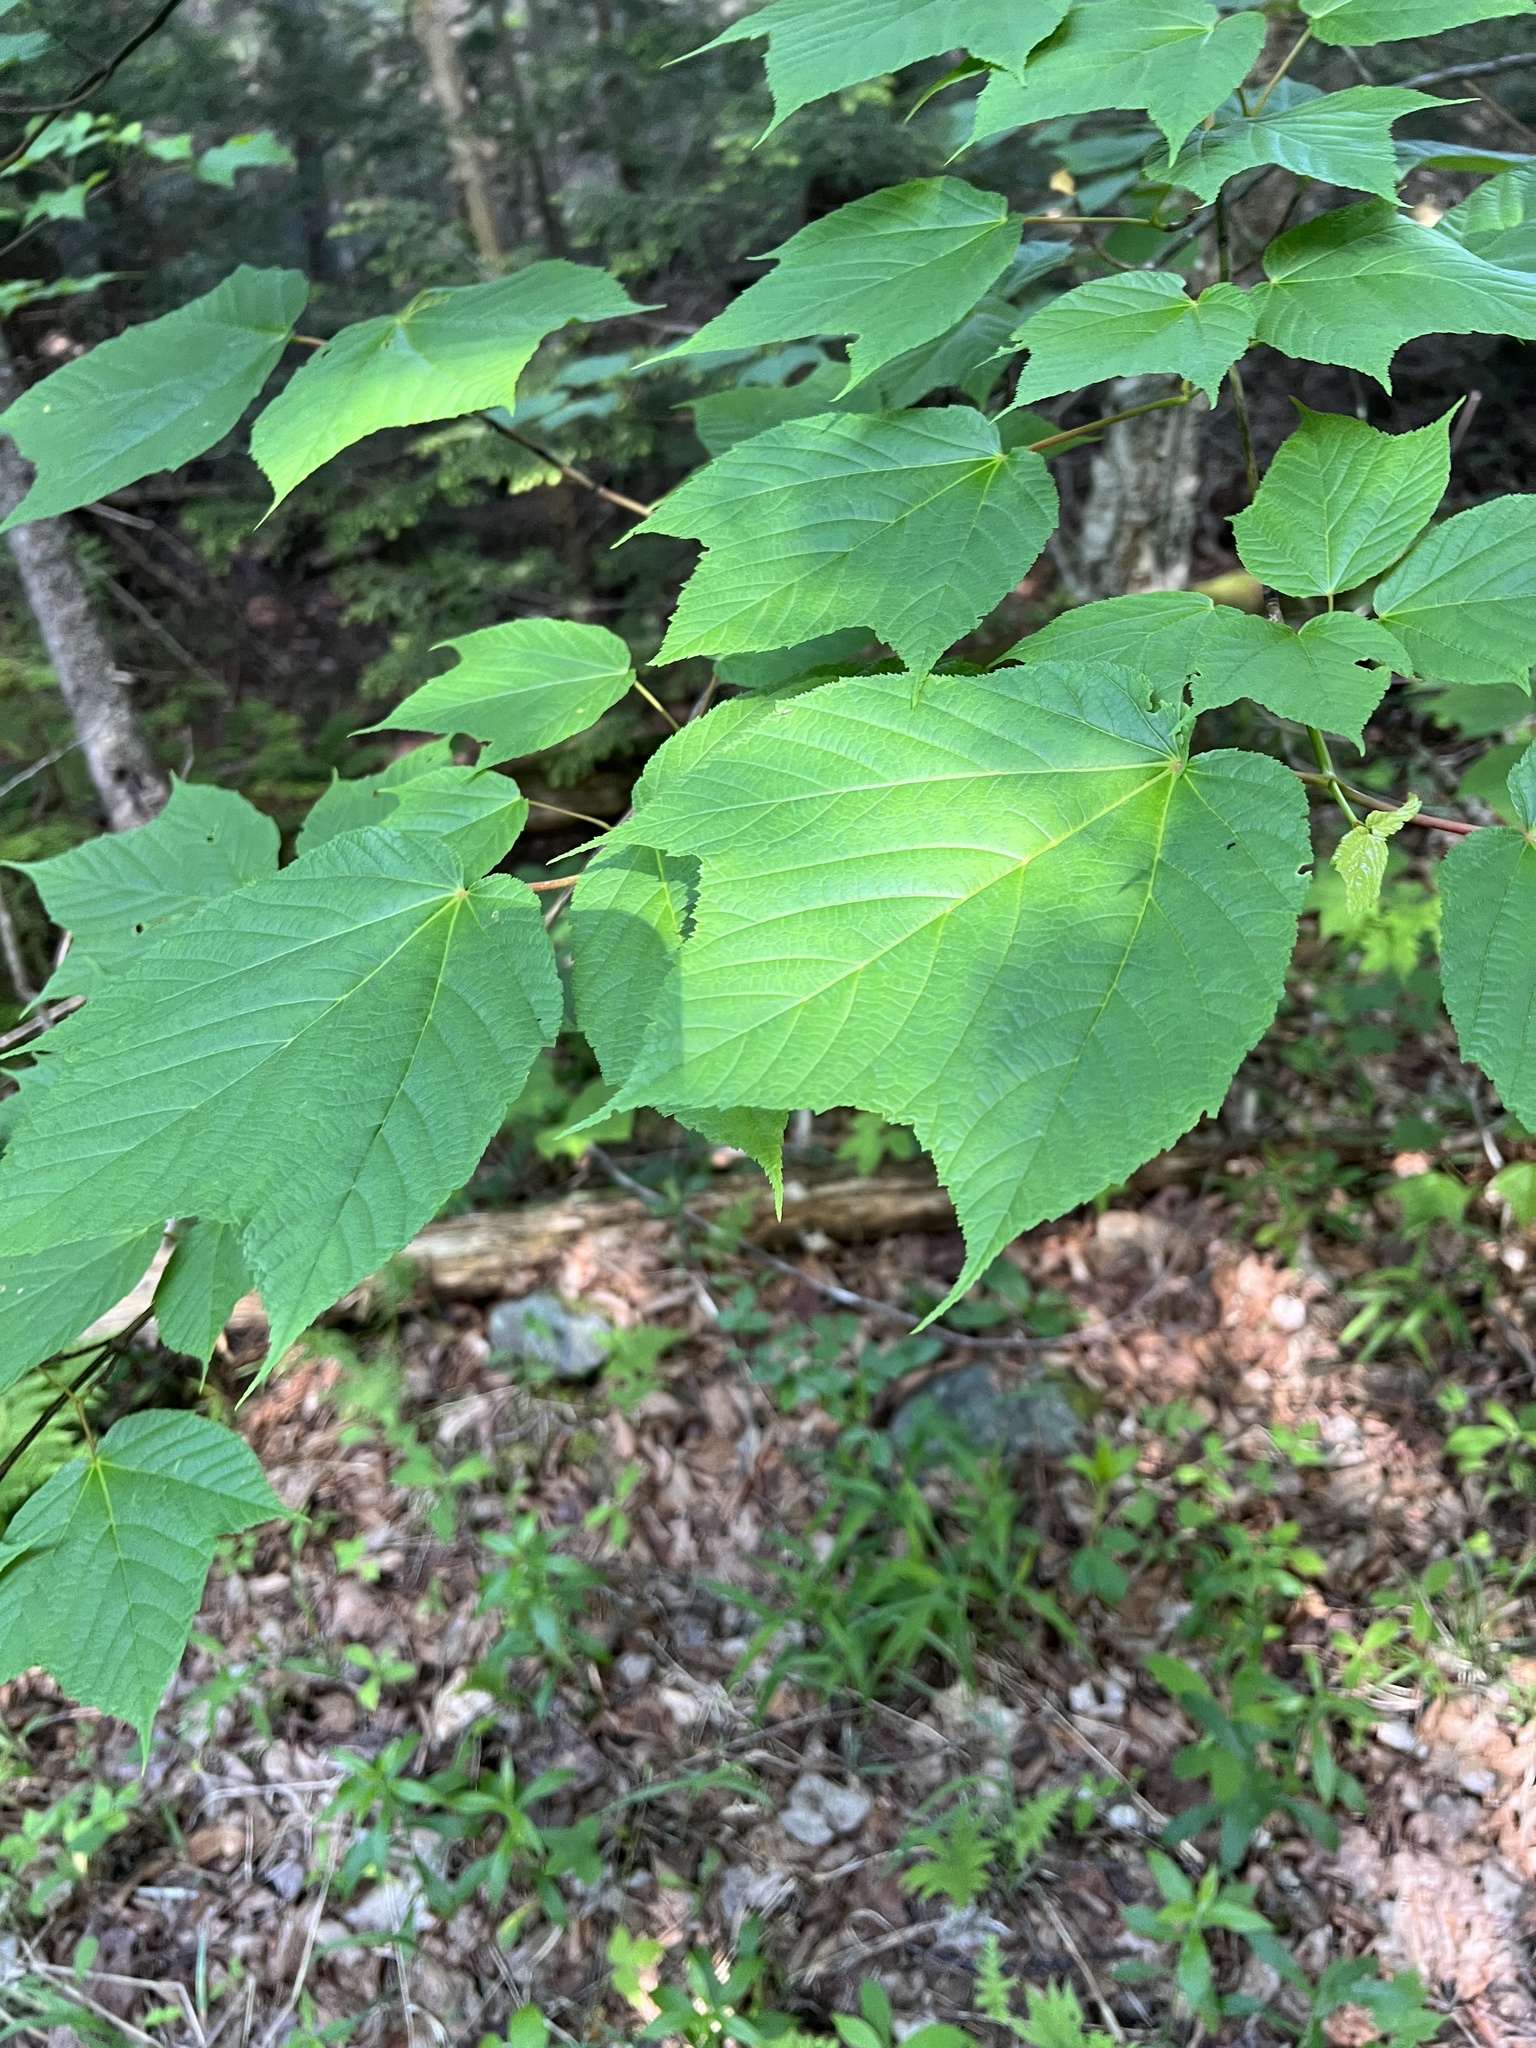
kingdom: Plantae
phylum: Tracheophyta
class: Magnoliopsida
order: Sapindales
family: Sapindaceae
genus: Acer
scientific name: Acer pensylvanicum
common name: Moosewood
